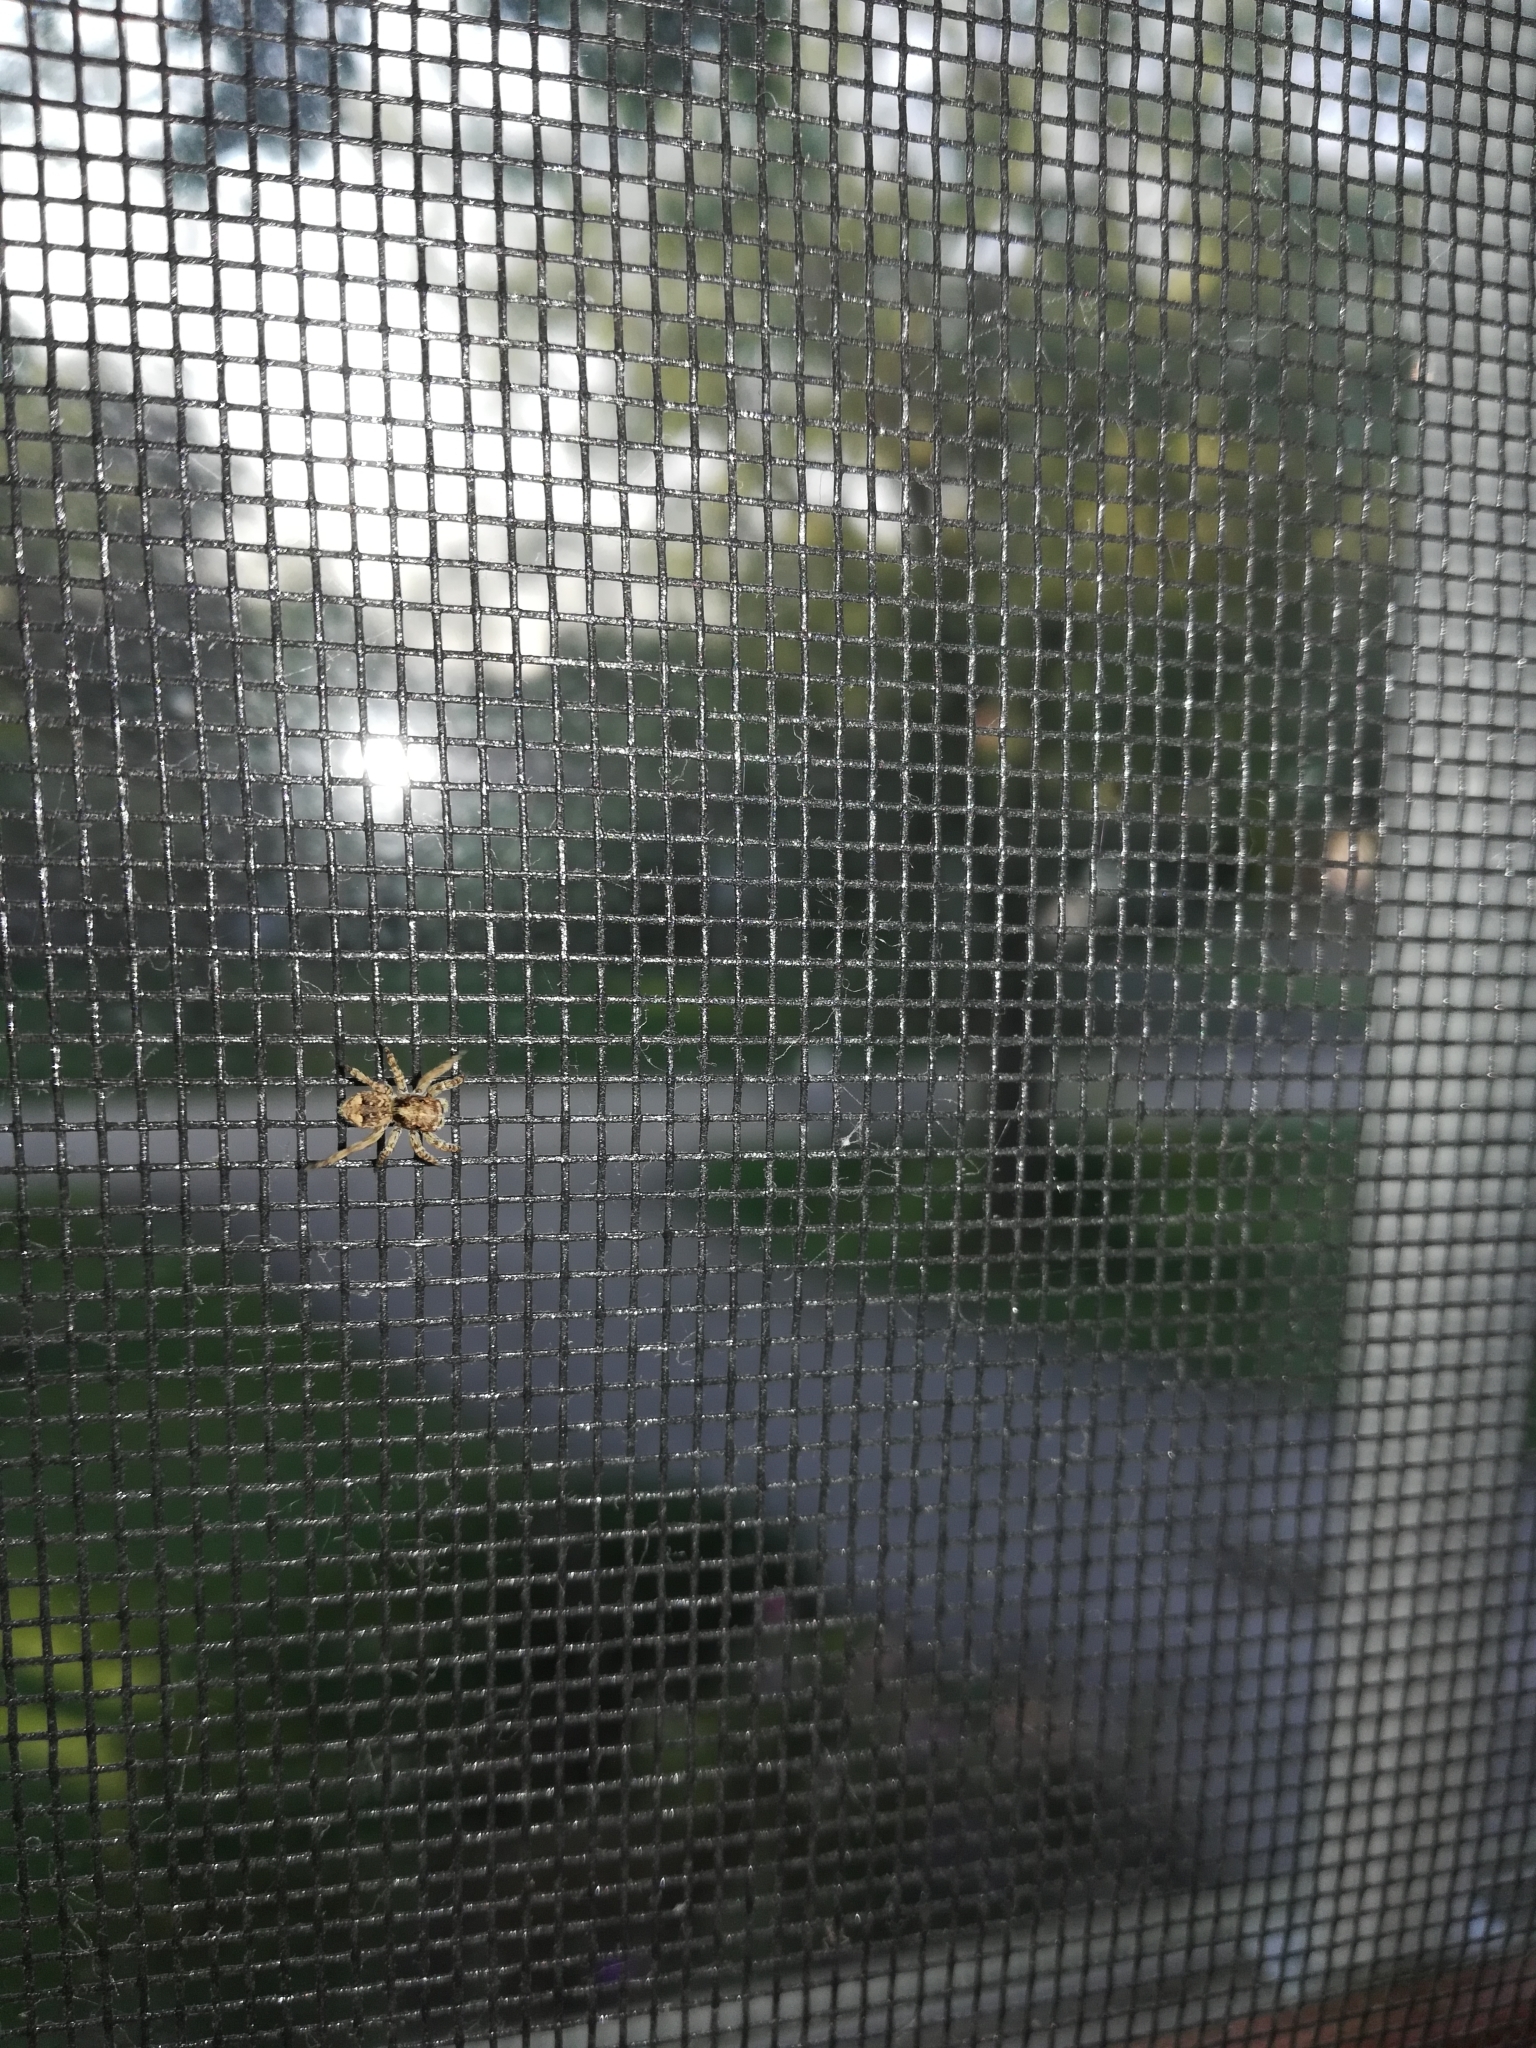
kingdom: Animalia
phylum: Arthropoda
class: Arachnida
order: Araneae
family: Salticidae
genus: Attulus
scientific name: Attulus fasciger
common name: Asiatic wall jumping spider
